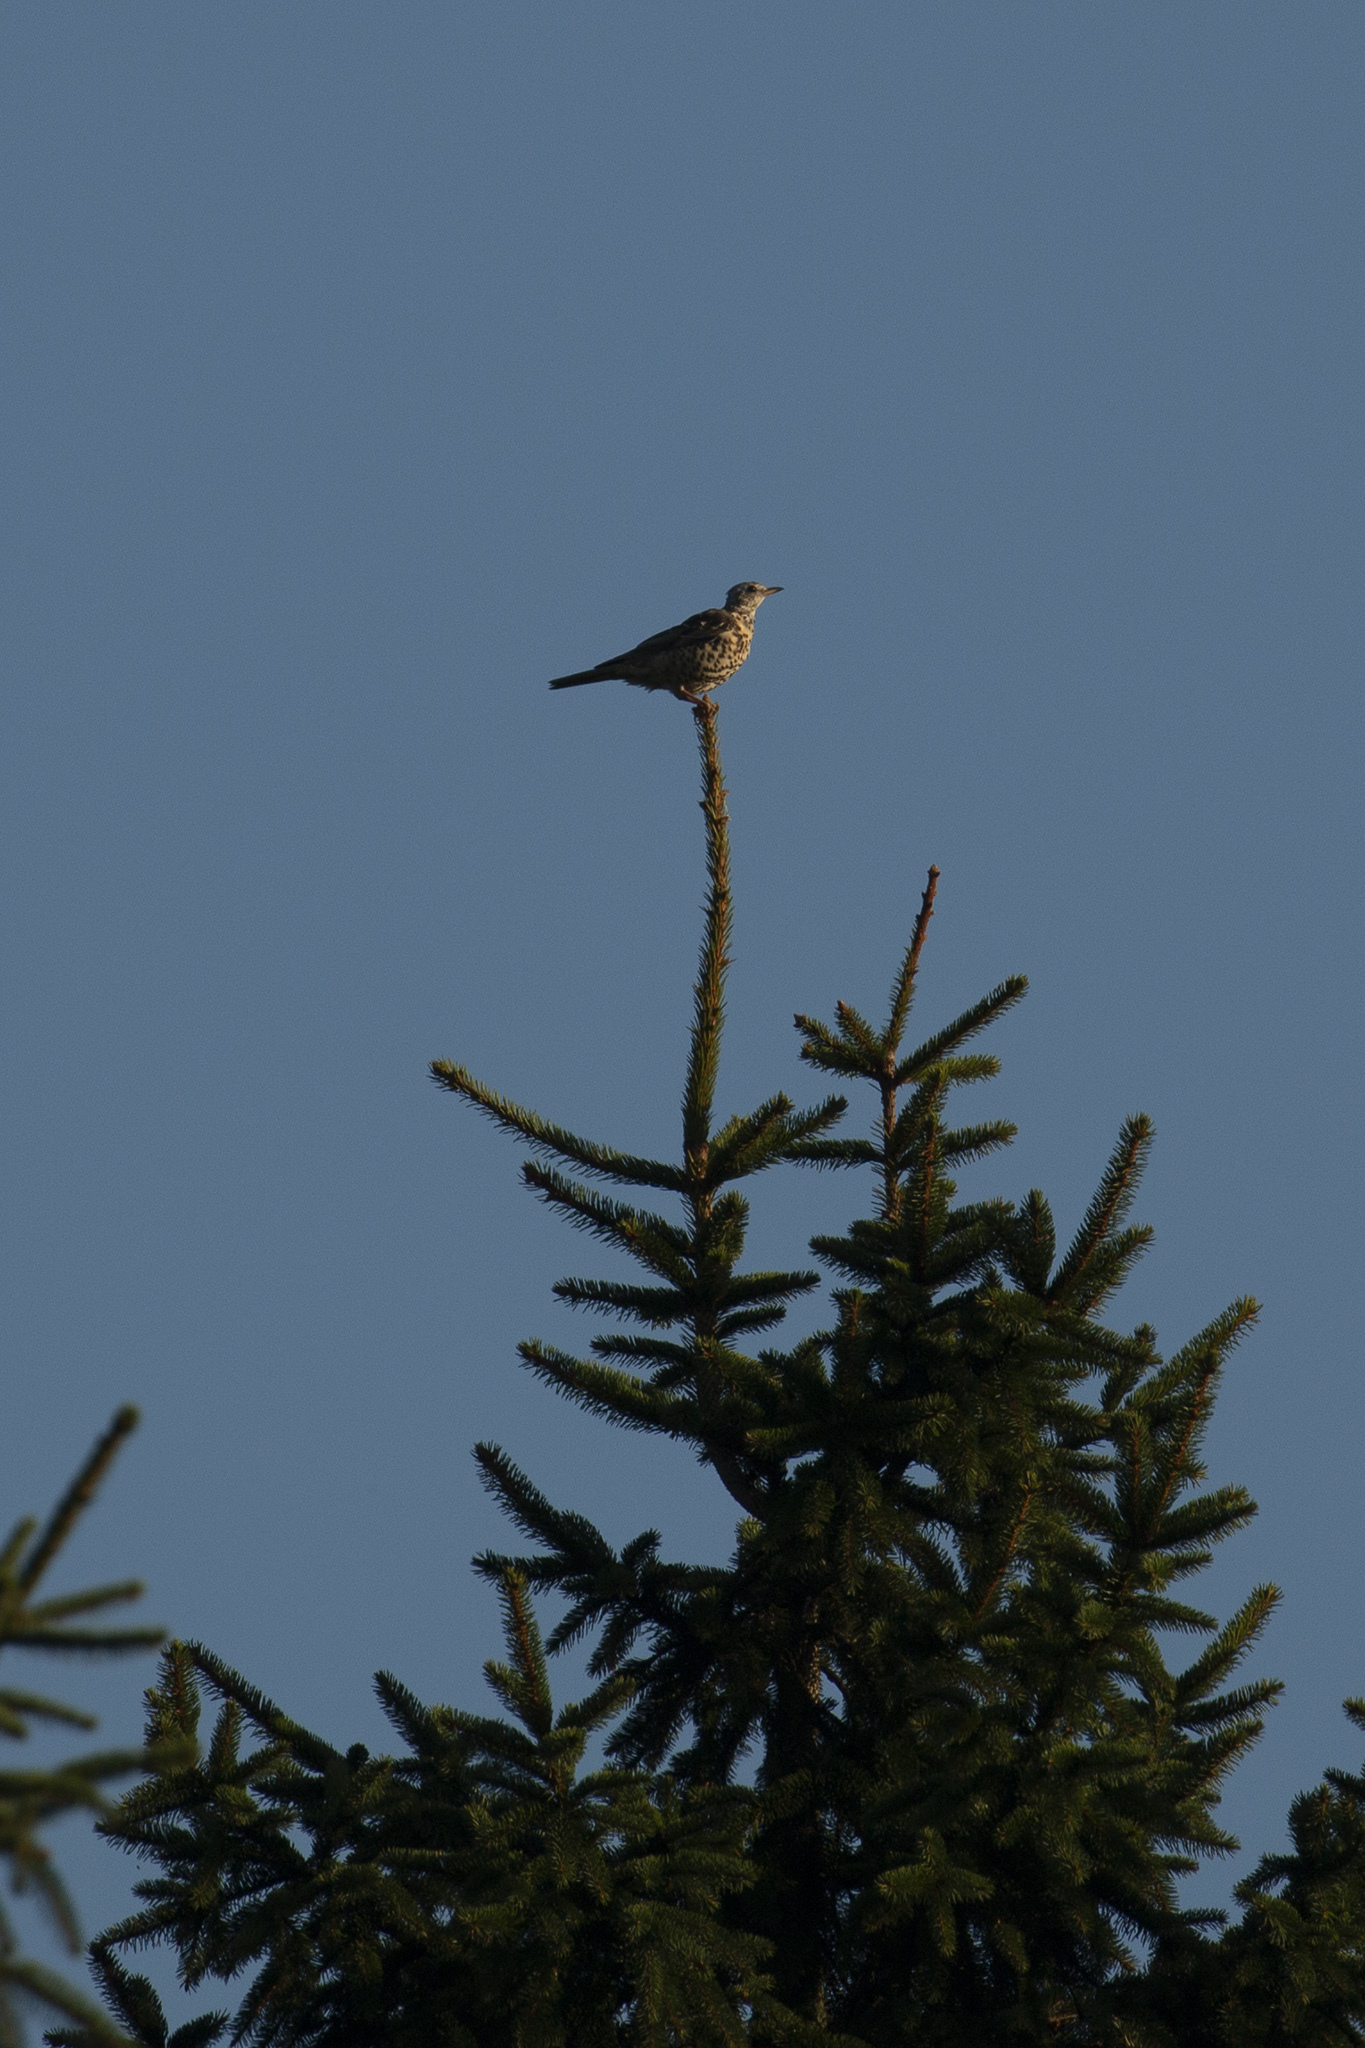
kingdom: Animalia
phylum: Chordata
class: Aves
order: Passeriformes
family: Turdidae
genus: Turdus
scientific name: Turdus viscivorus
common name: Mistle thrush
